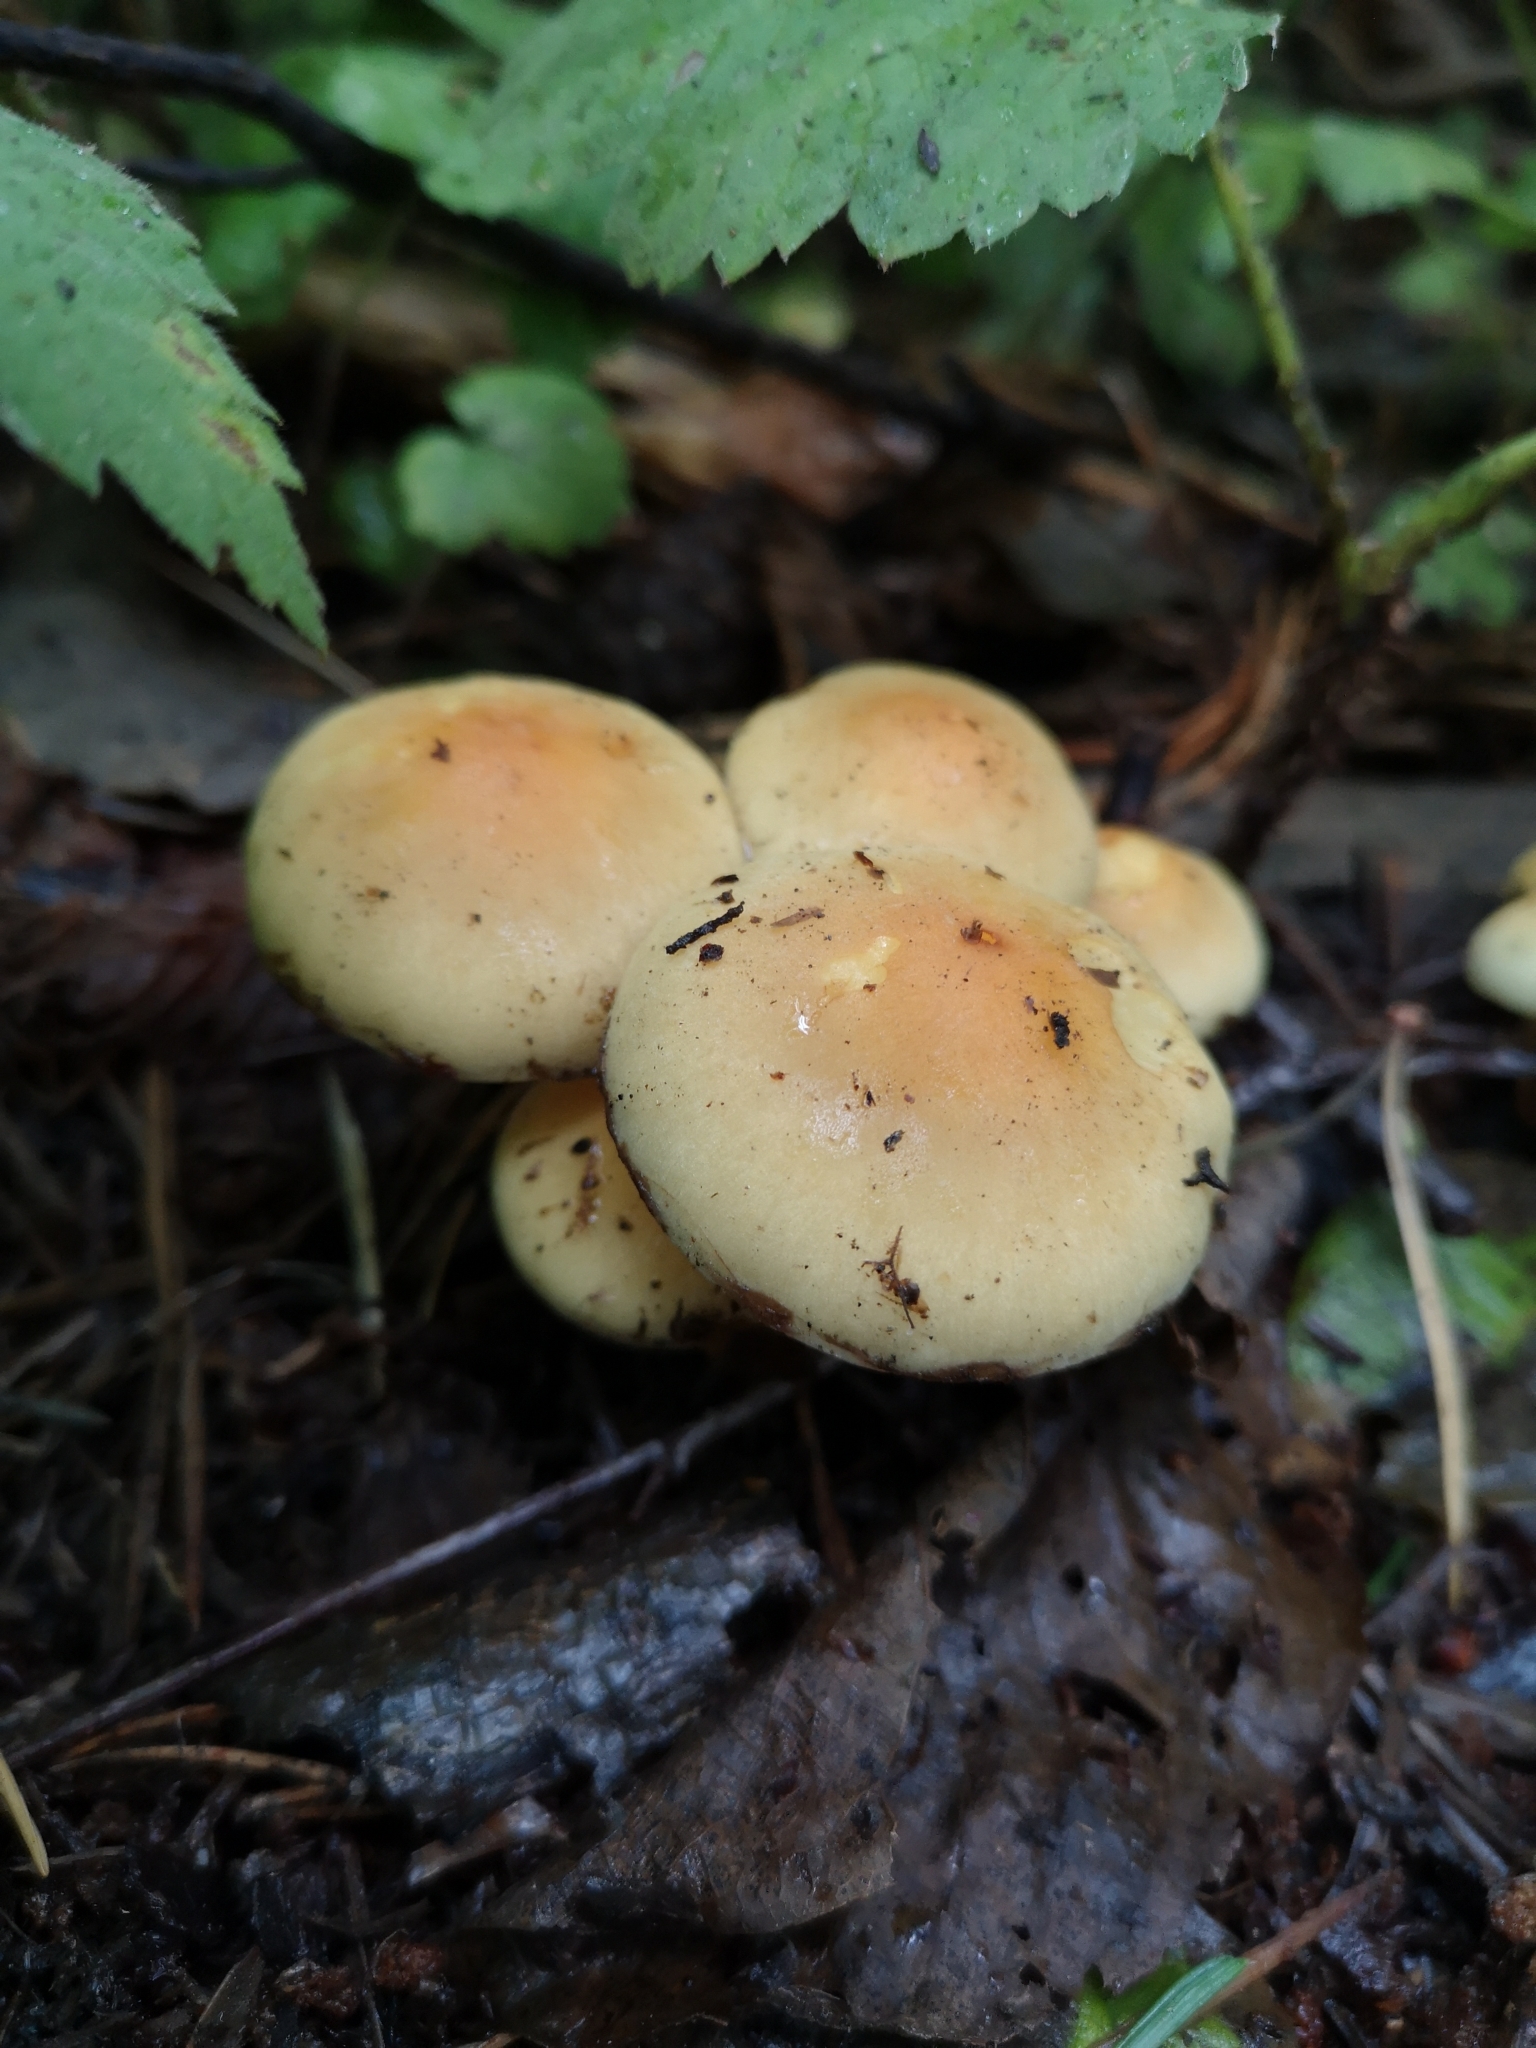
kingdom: Fungi
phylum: Basidiomycota
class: Agaricomycetes
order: Agaricales
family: Strophariaceae
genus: Hypholoma
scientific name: Hypholoma fasciculare
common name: Sulphur tuft
